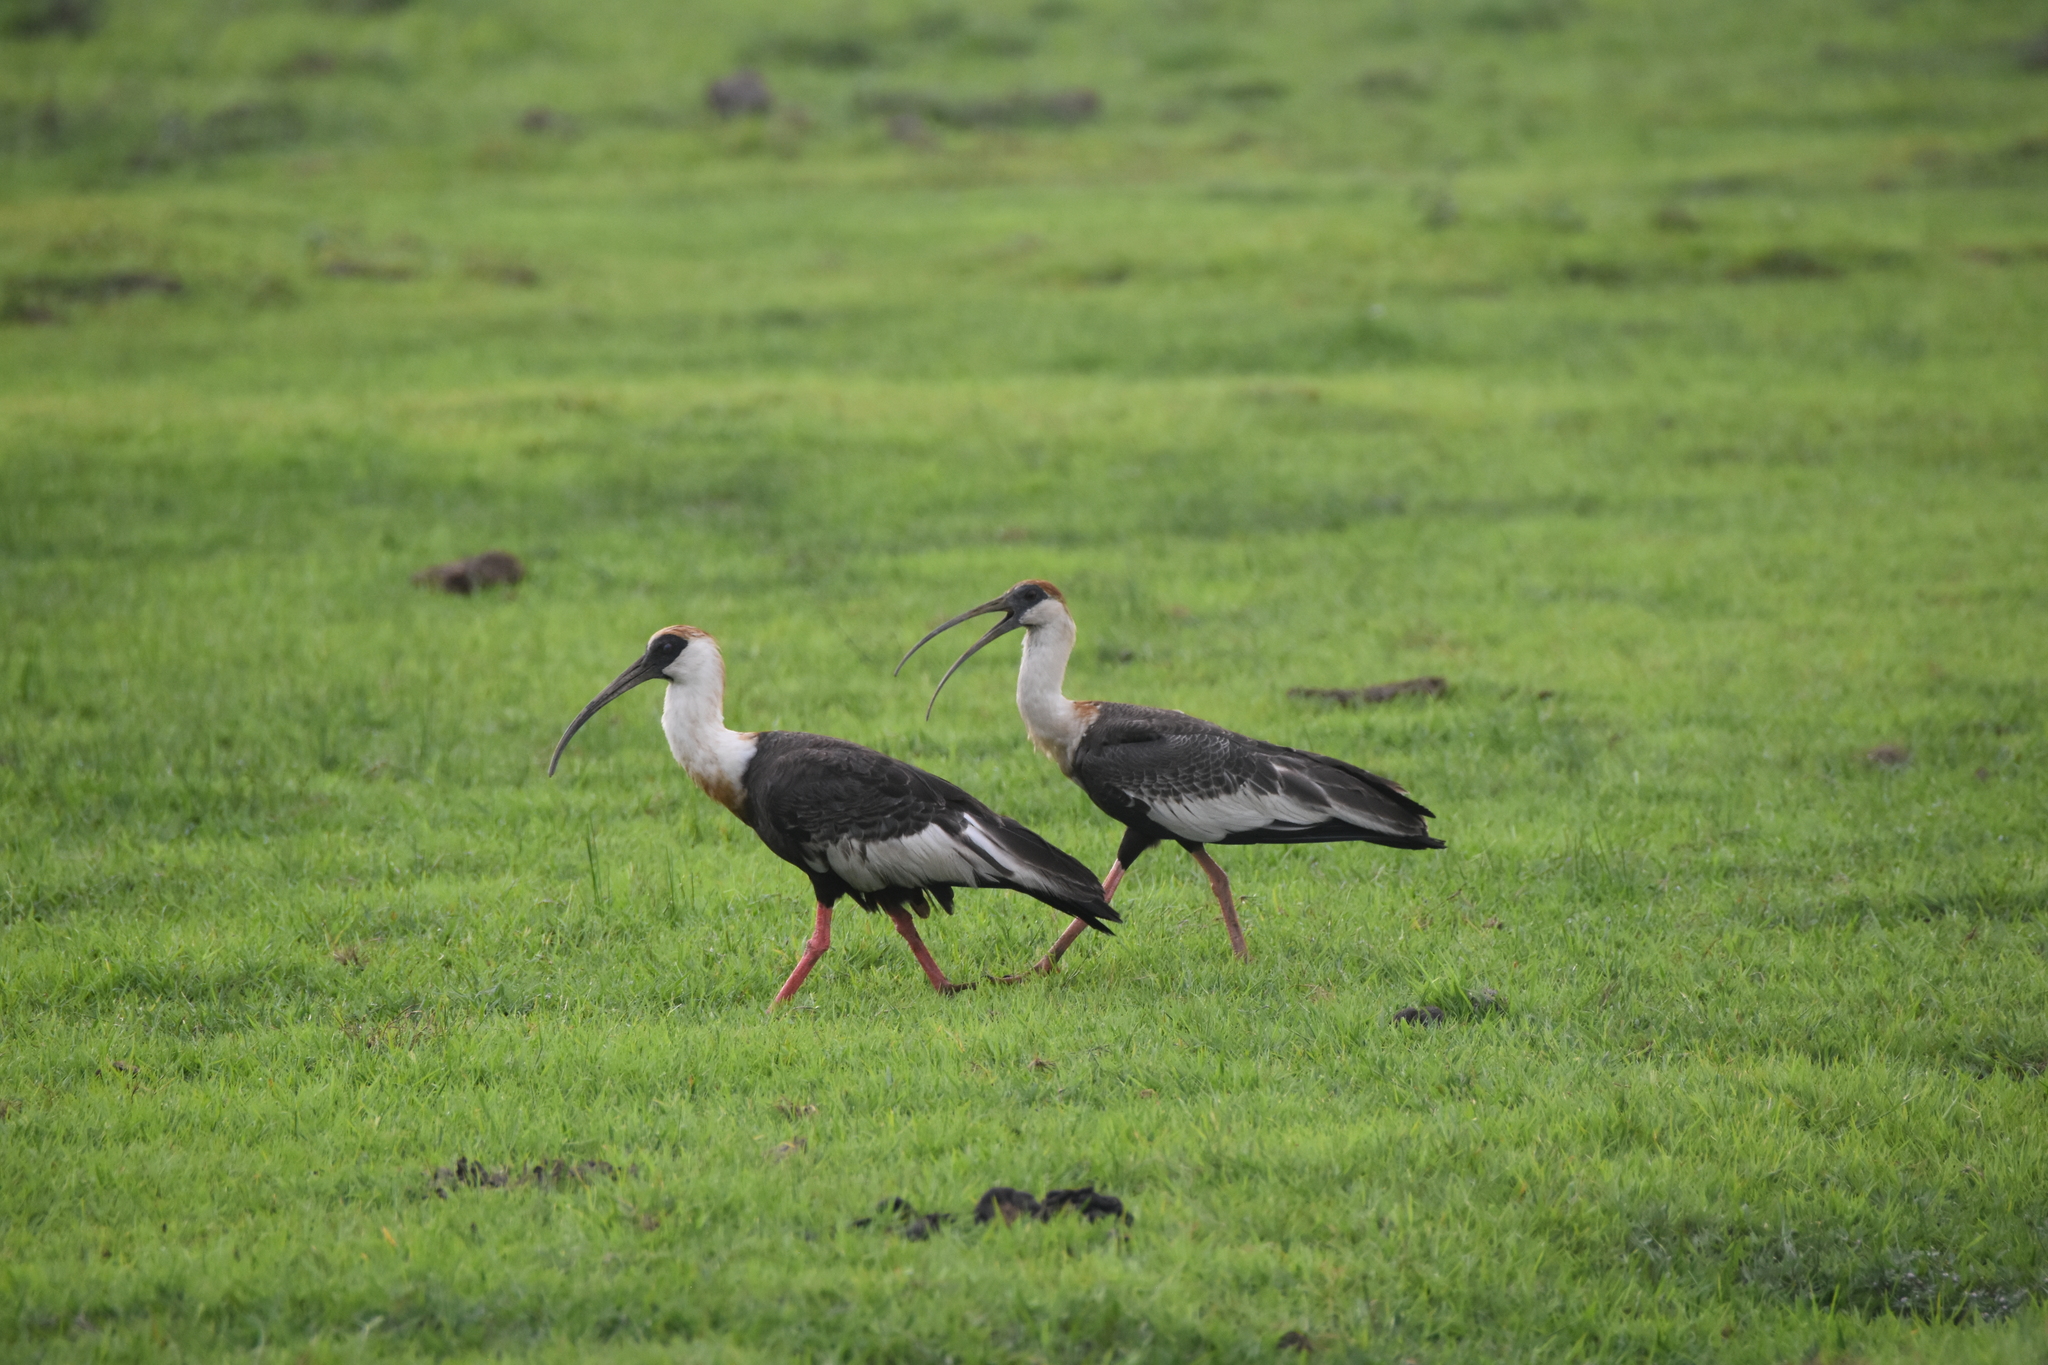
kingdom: Animalia
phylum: Chordata
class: Aves
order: Pelecaniformes
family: Threskiornithidae
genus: Theristicus
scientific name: Theristicus caudatus
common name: Buff-necked ibis
